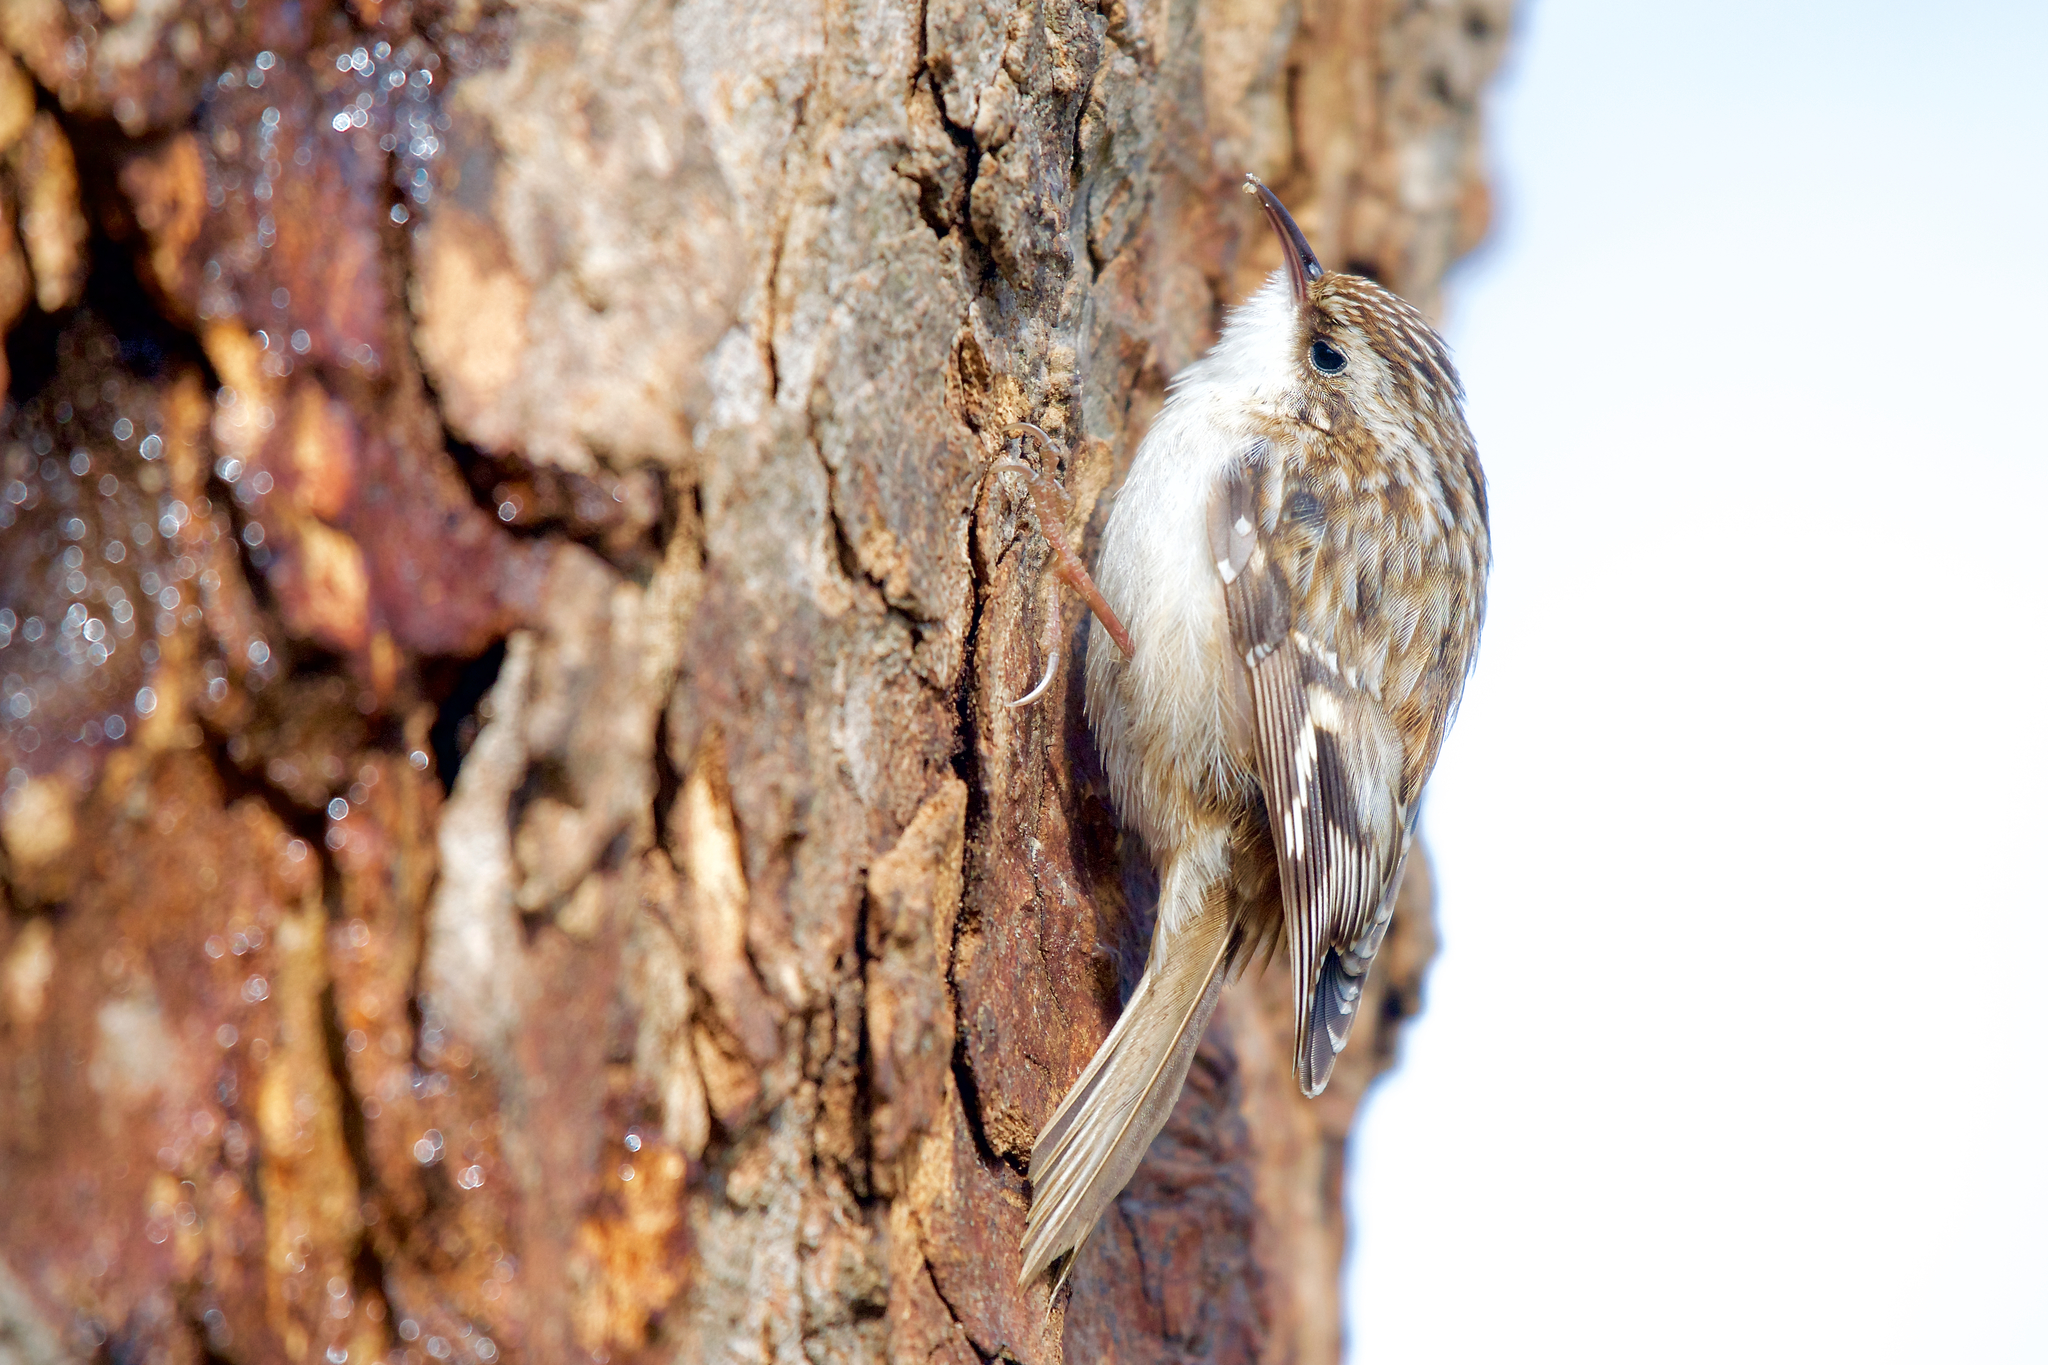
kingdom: Animalia
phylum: Chordata
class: Aves
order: Passeriformes
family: Certhiidae
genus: Certhia
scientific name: Certhia americana
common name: Brown creeper
